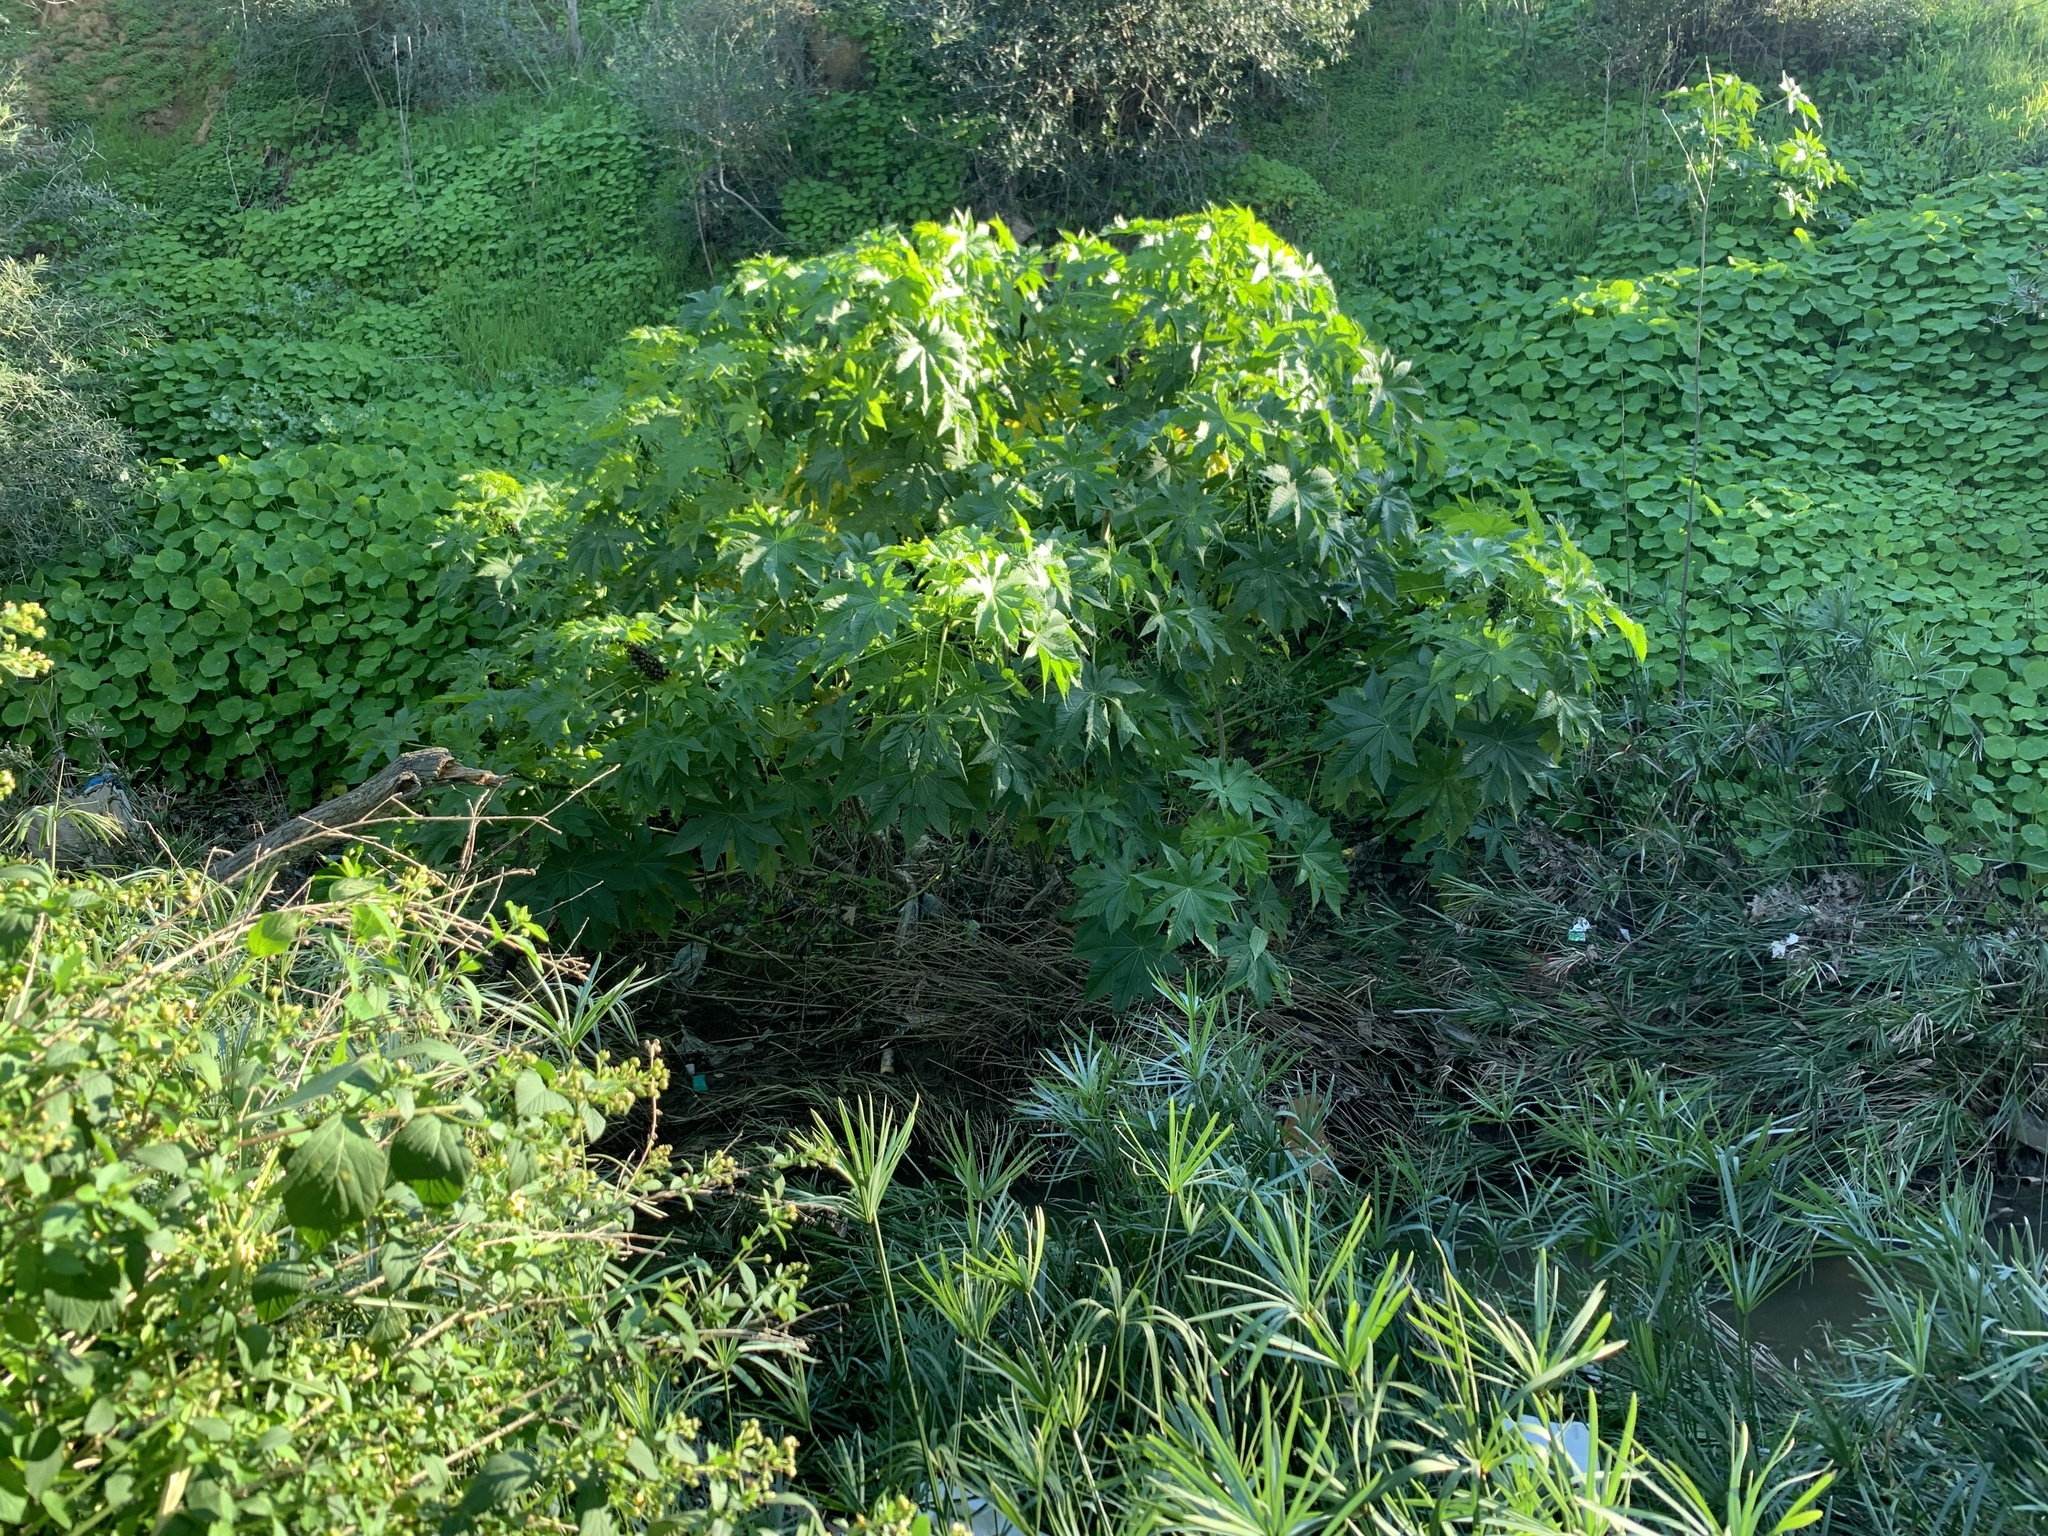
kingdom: Plantae
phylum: Tracheophyta
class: Magnoliopsida
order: Malpighiales
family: Euphorbiaceae
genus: Ricinus
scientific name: Ricinus communis
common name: Castor-oil-plant
